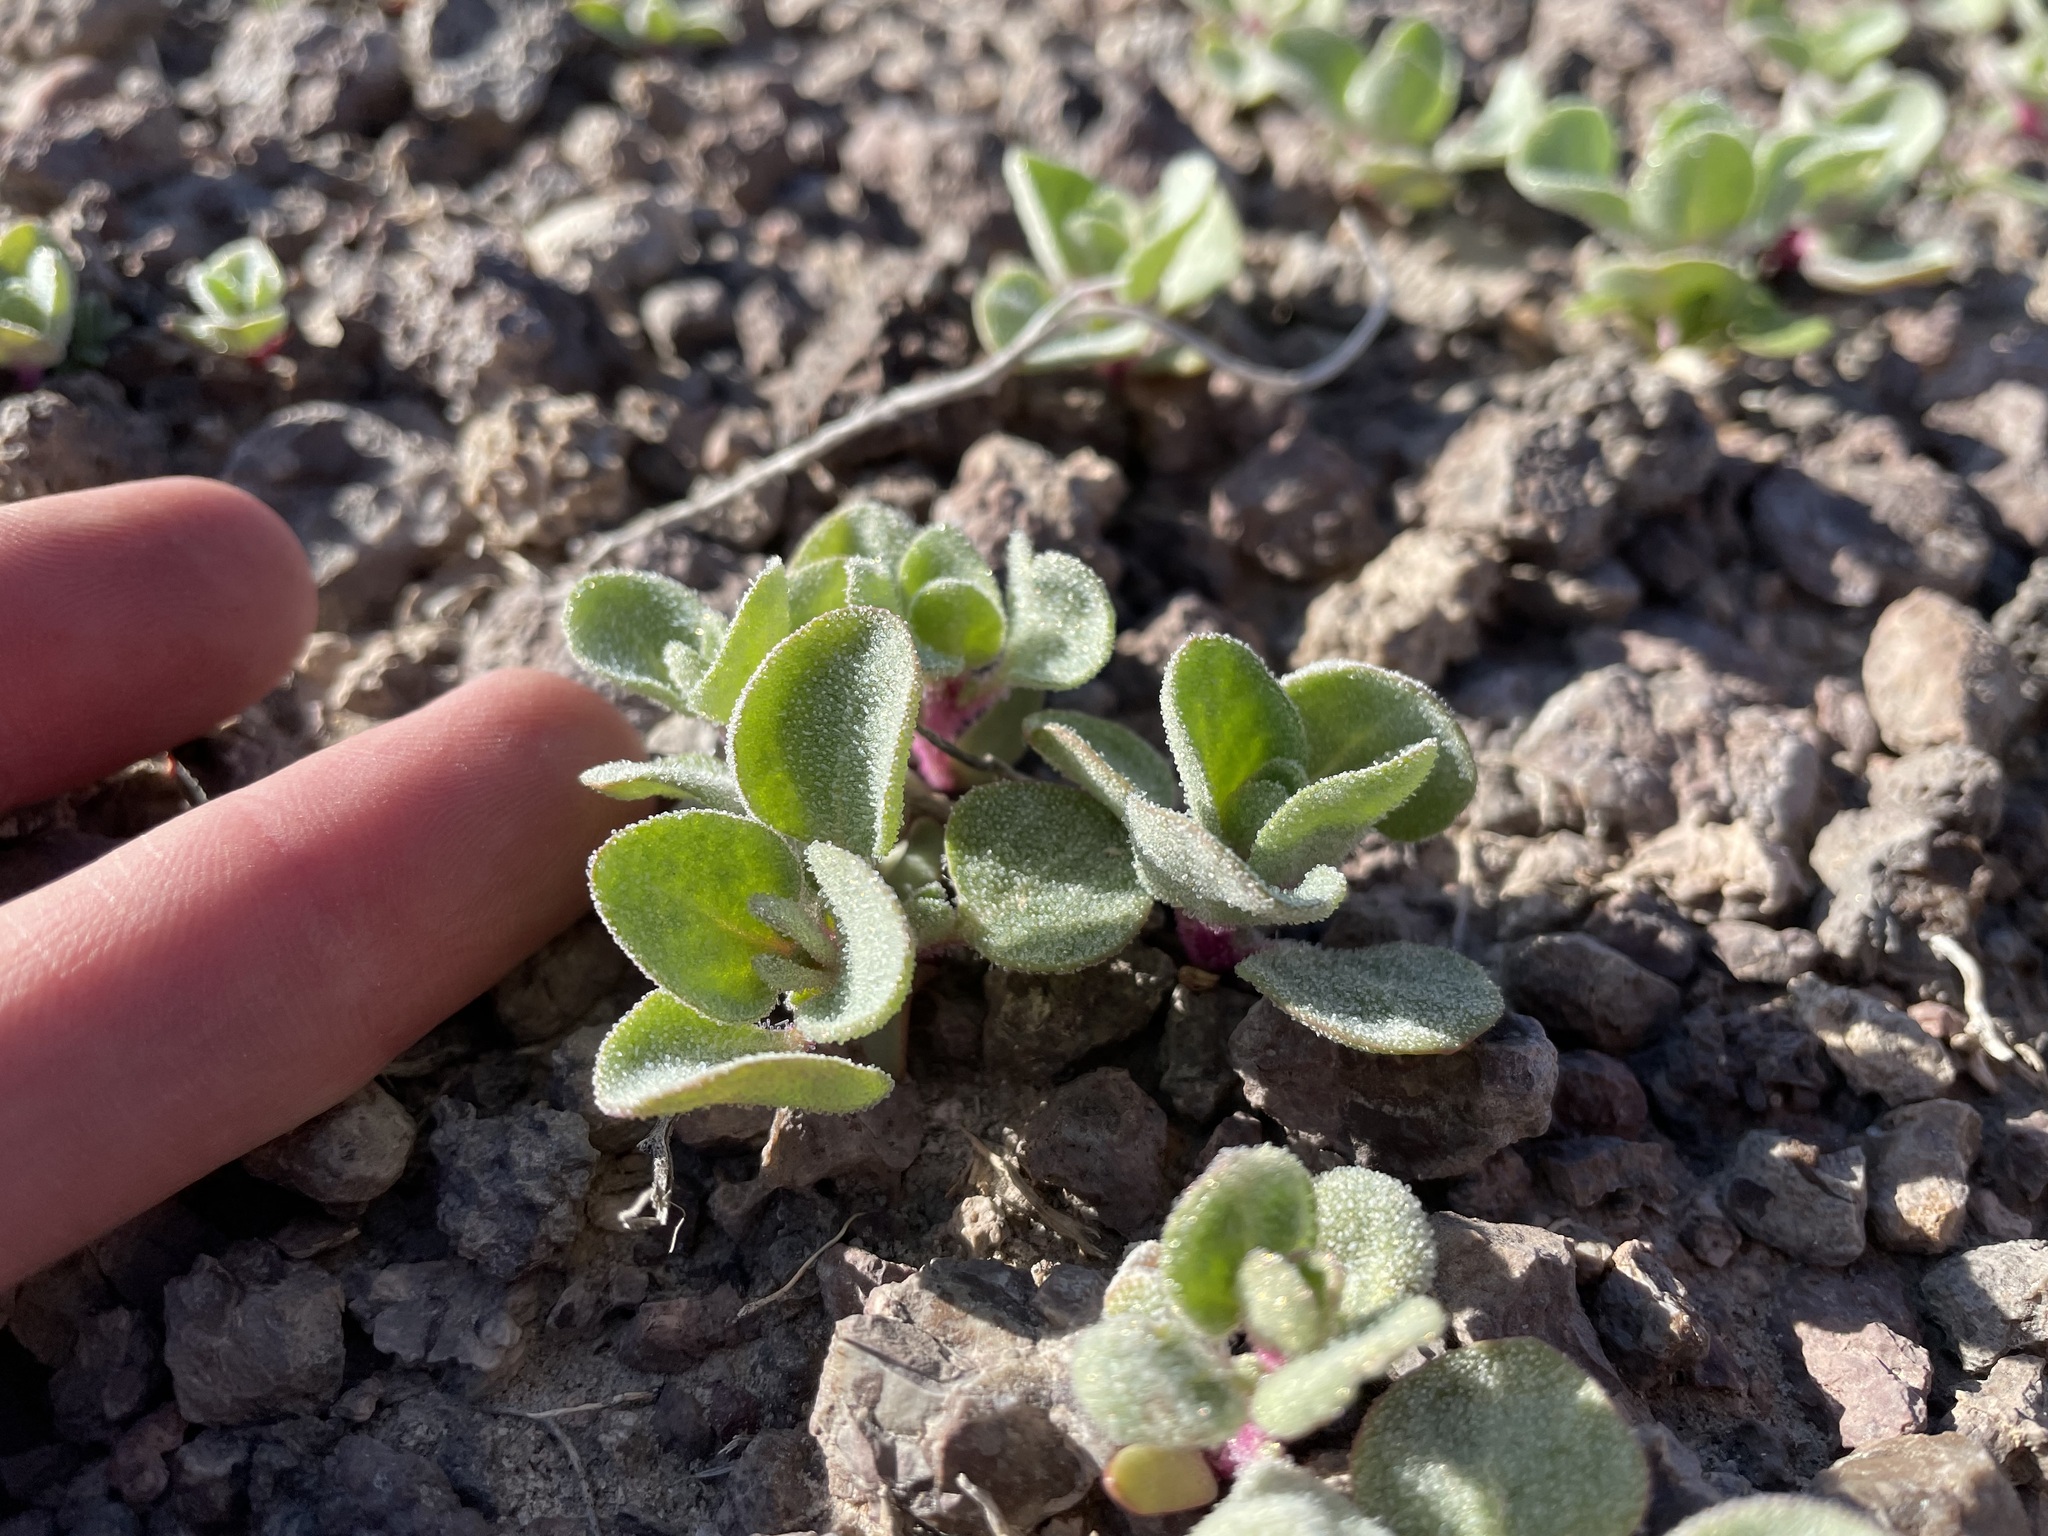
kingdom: Plantae
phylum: Tracheophyta
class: Magnoliopsida
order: Caryophyllales
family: Amaranthaceae
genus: Atriplex
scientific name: Atriplex saccaria
